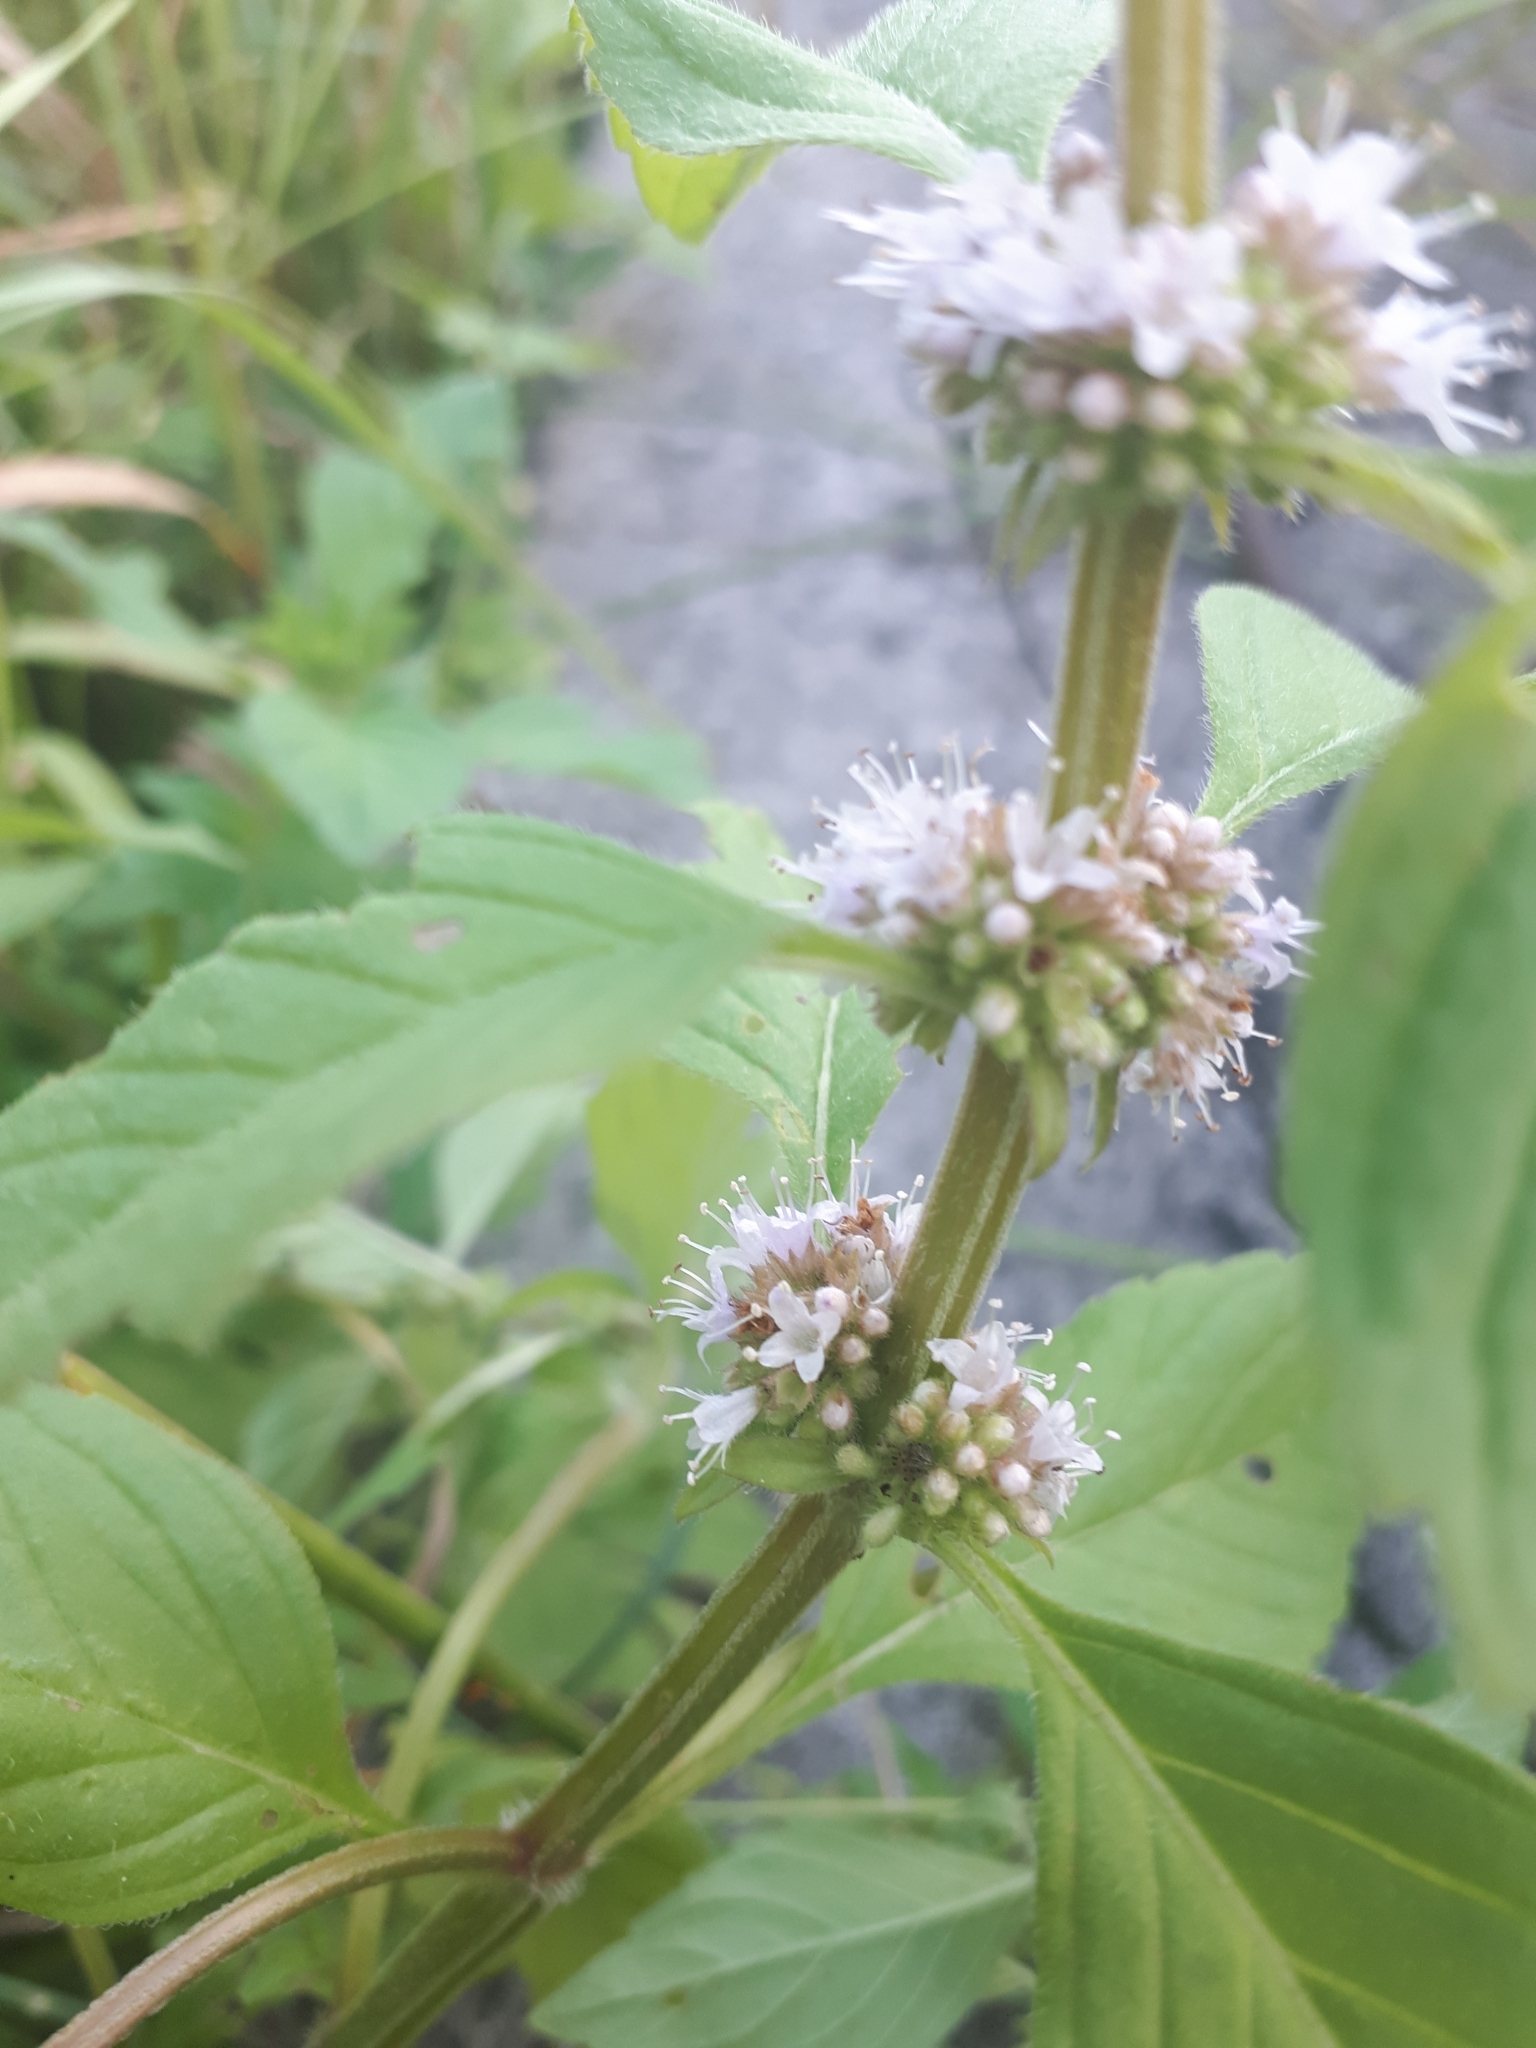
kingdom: Plantae
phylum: Tracheophyta
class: Magnoliopsida
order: Lamiales
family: Lamiaceae
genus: Mentha
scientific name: Mentha arvensis
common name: Corn mint
